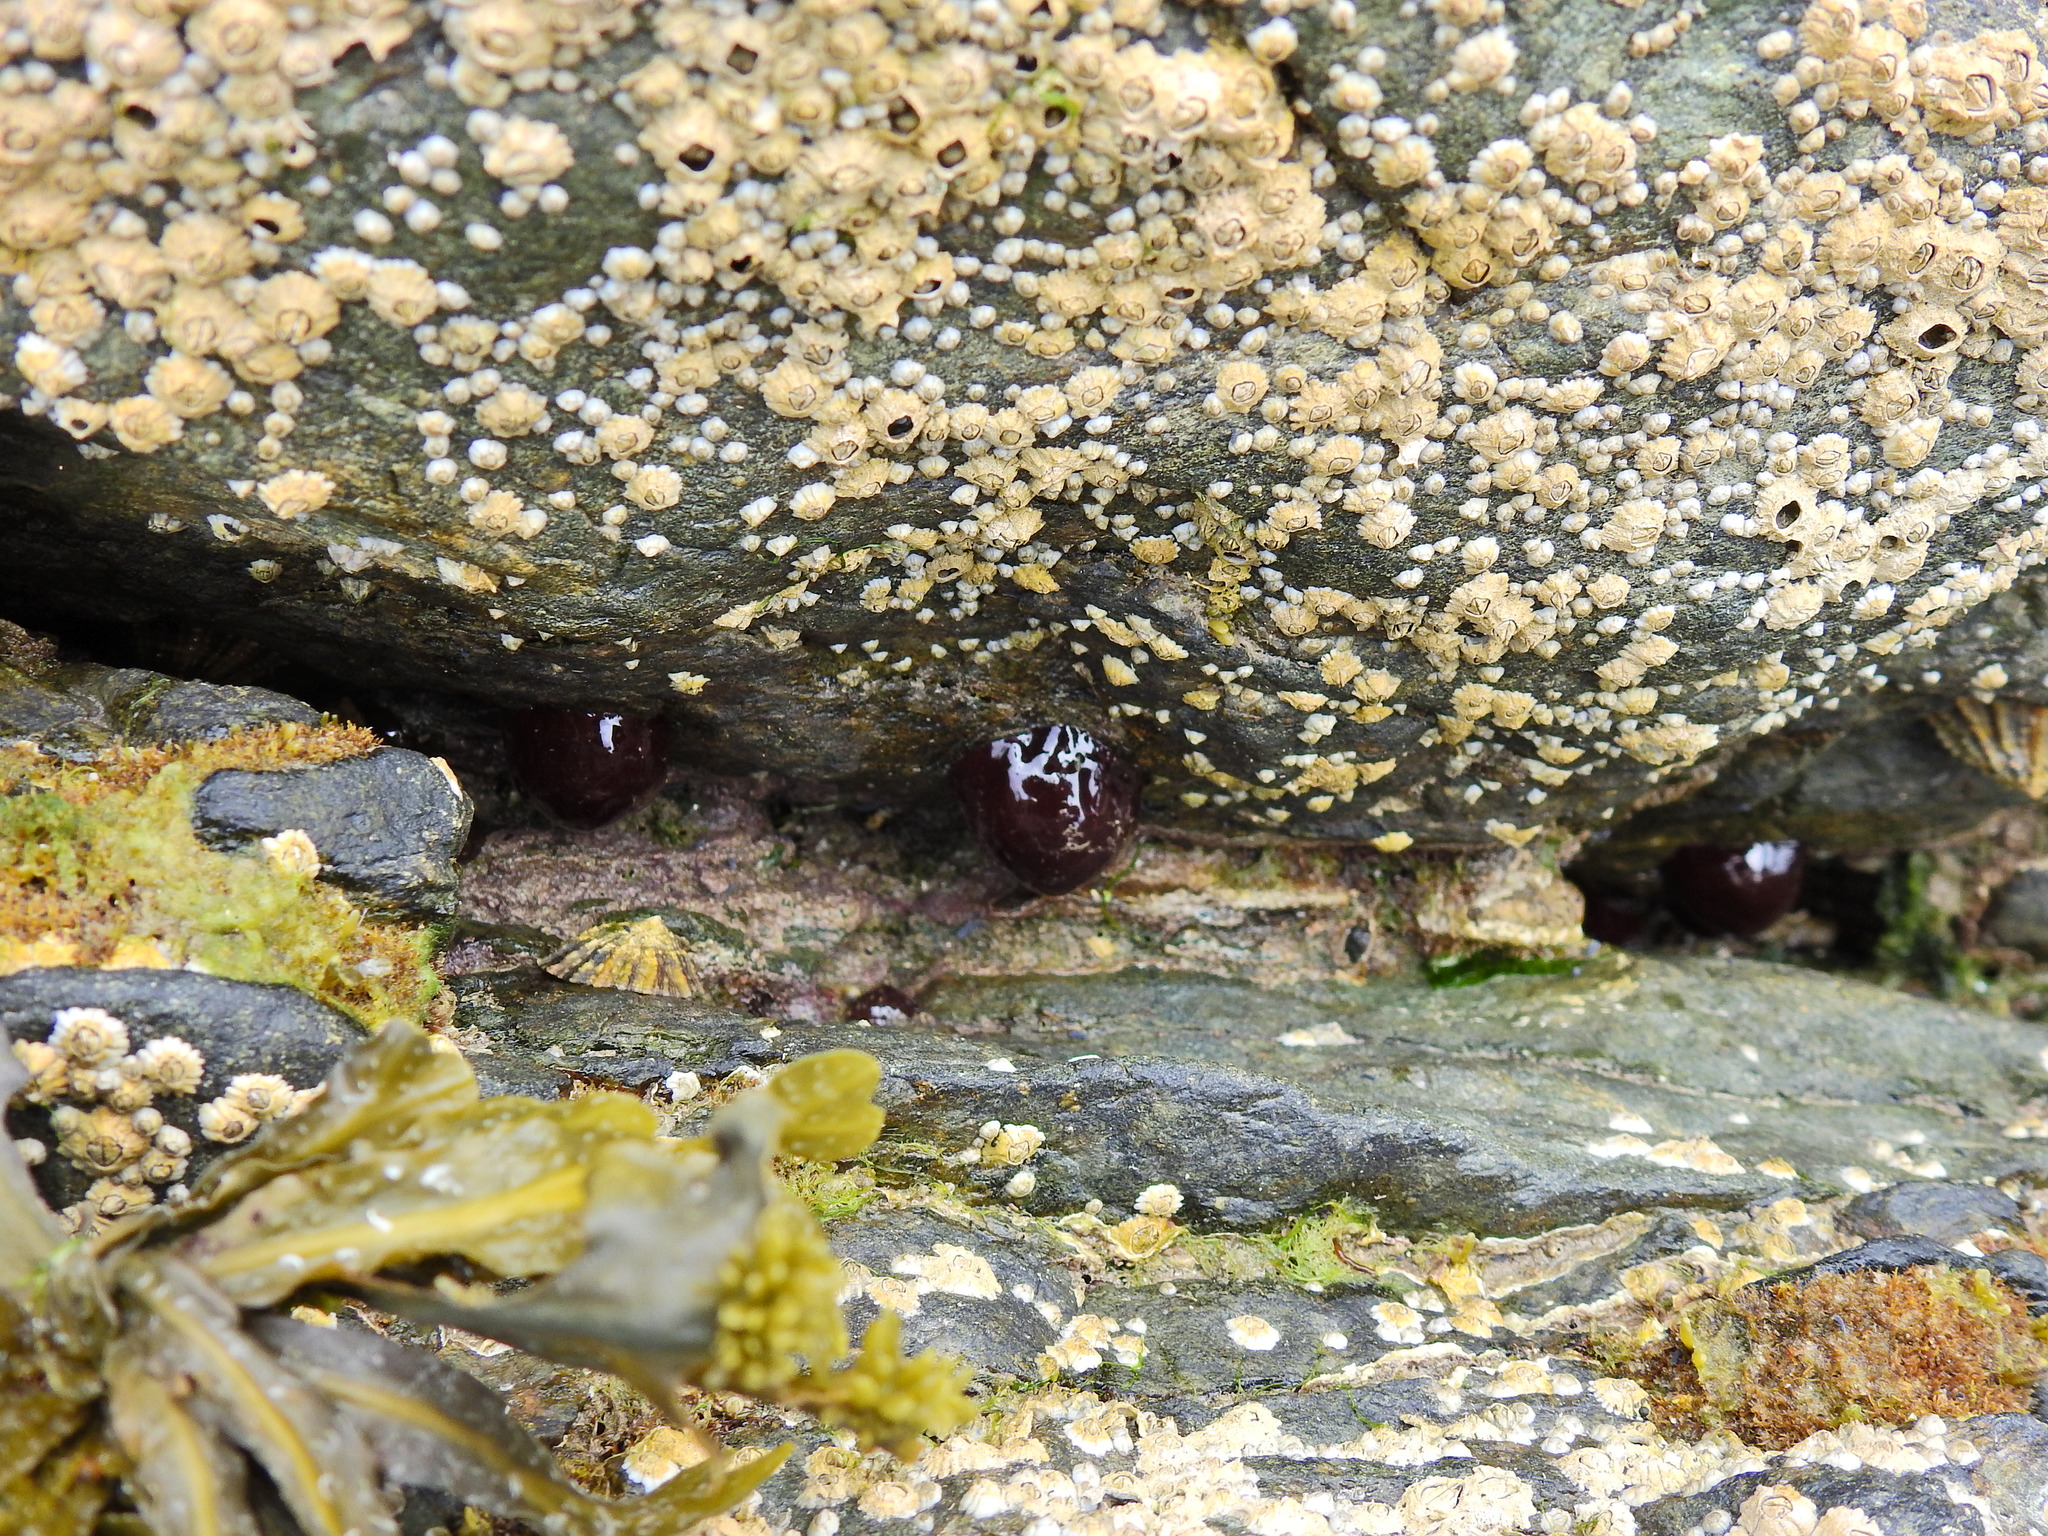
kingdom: Animalia
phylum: Cnidaria
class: Anthozoa
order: Actiniaria
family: Actiniidae
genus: Actinia
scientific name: Actinia equina
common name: Beadlet anemone
